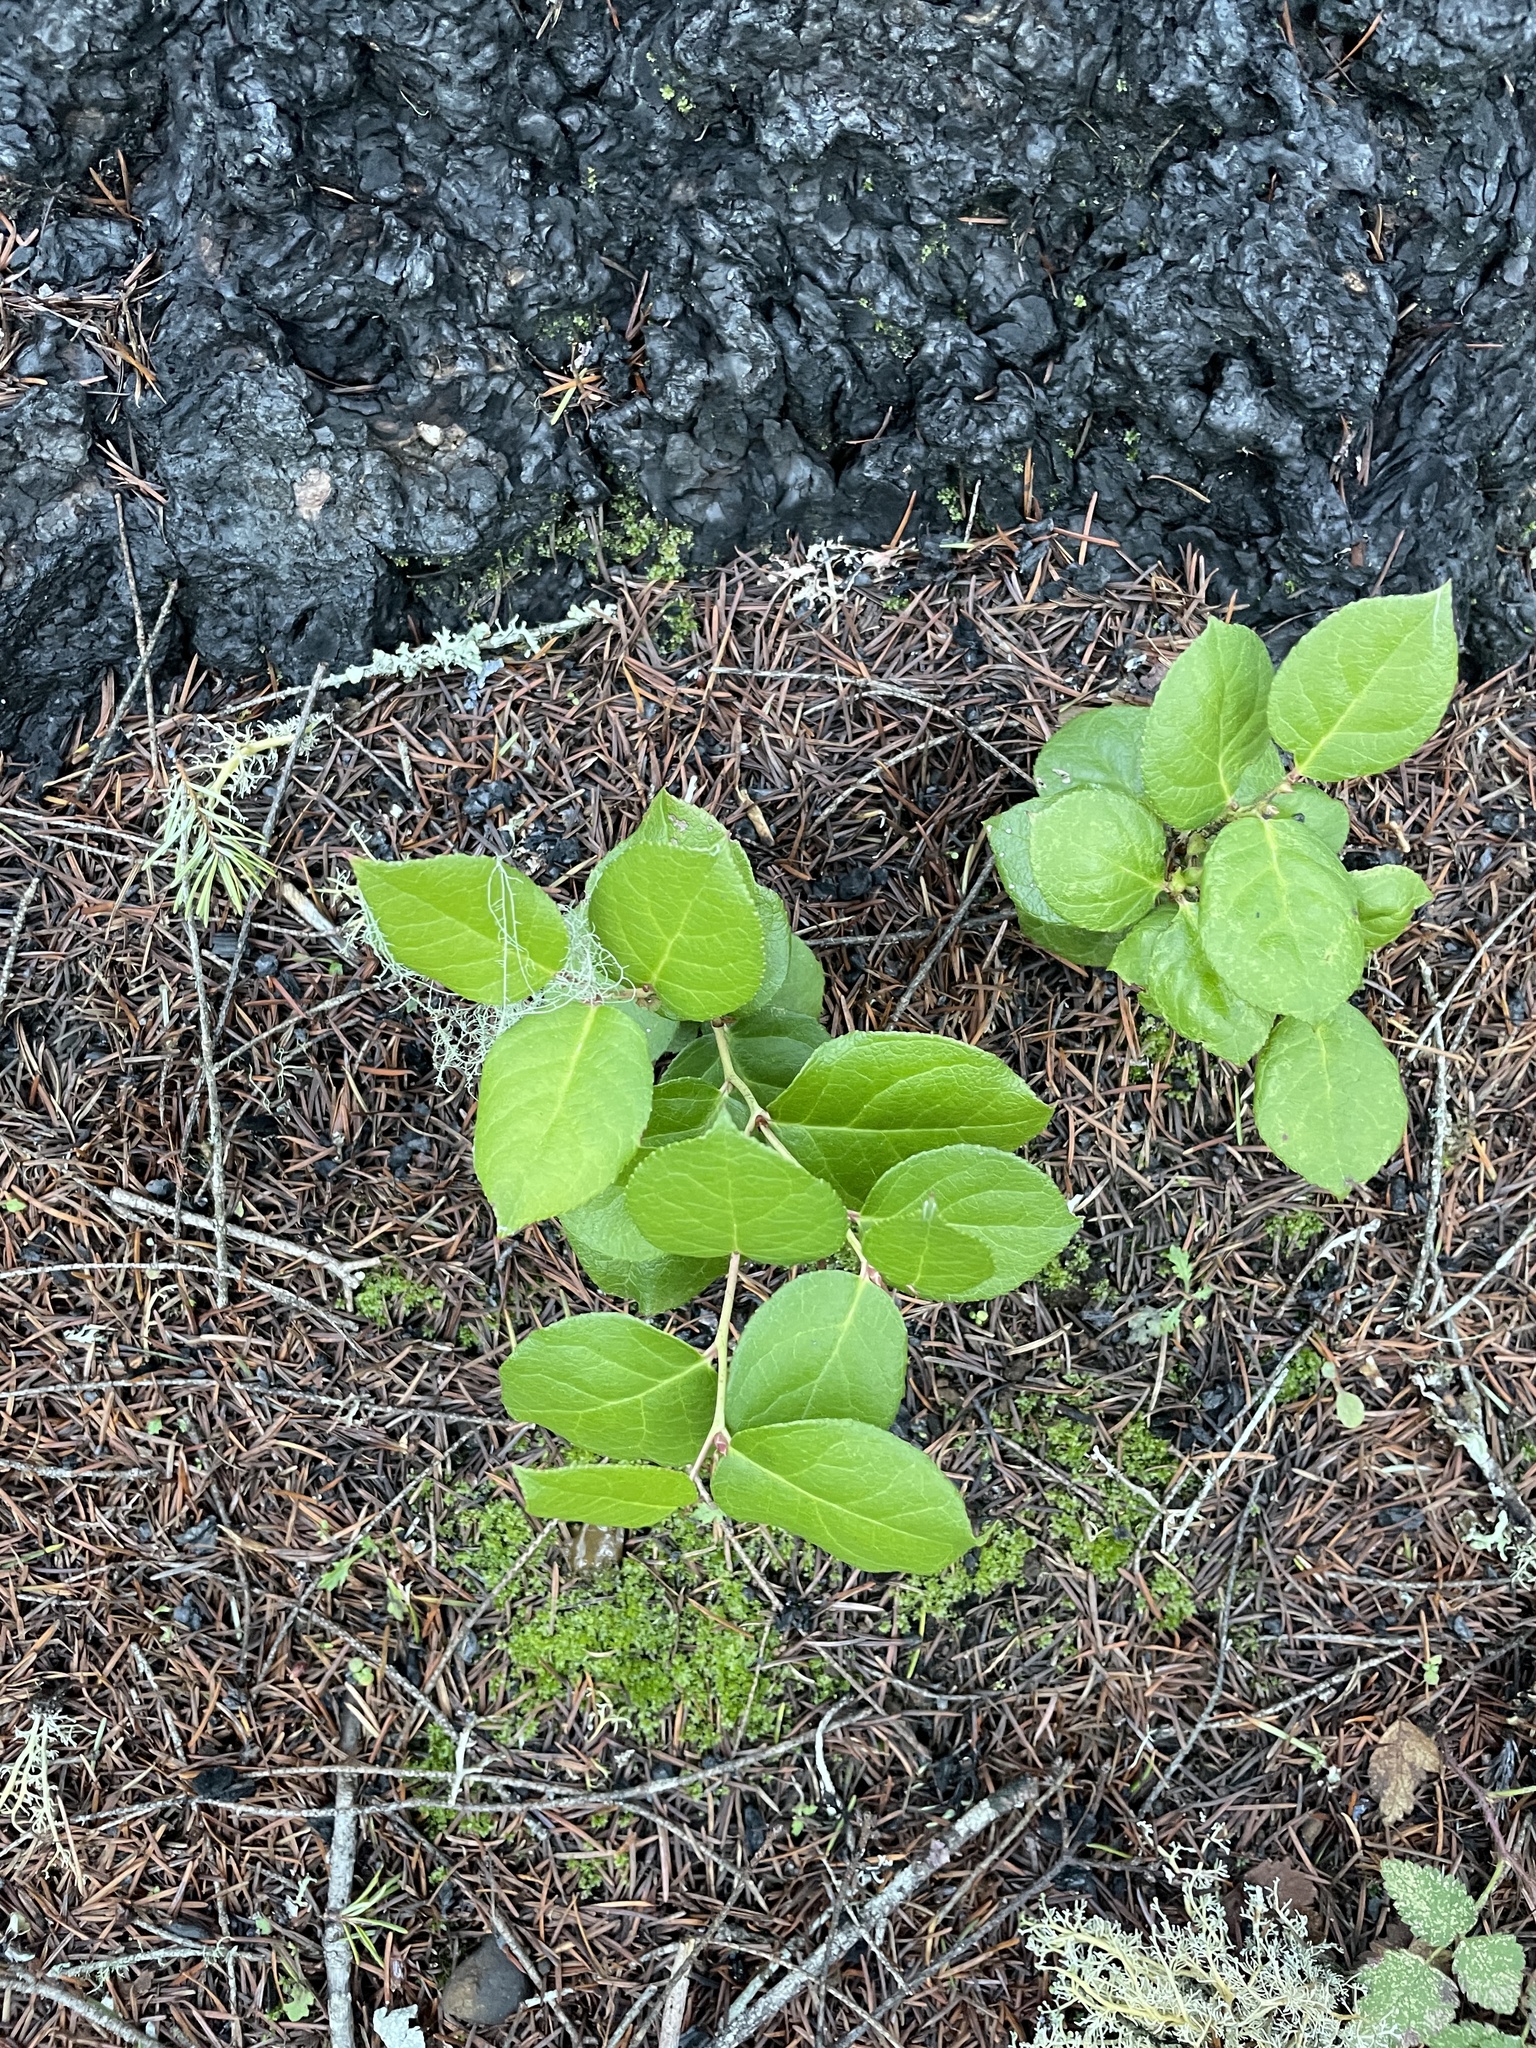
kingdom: Plantae
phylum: Tracheophyta
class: Magnoliopsida
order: Ericales
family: Ericaceae
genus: Gaultheria
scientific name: Gaultheria shallon
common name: Shallon
